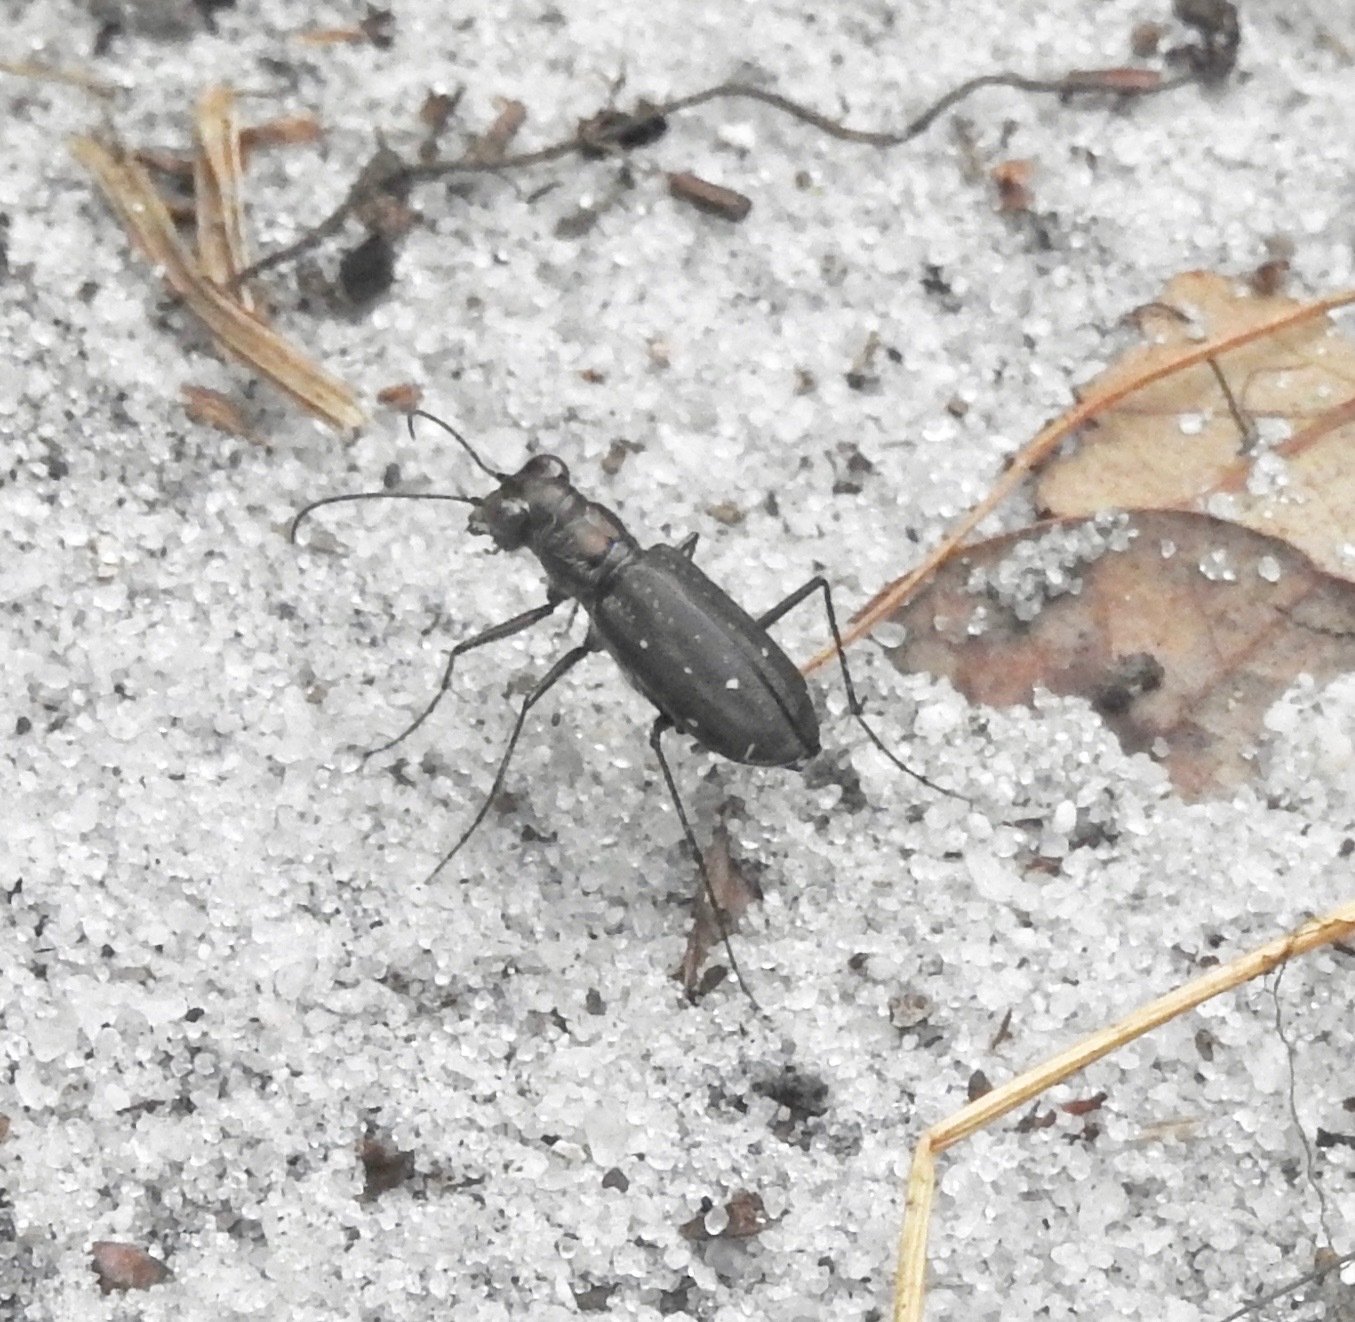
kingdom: Animalia
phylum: Arthropoda
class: Insecta
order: Coleoptera
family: Carabidae
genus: Cicindela
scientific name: Cicindela punctulata
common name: Punctured tiger beetle
